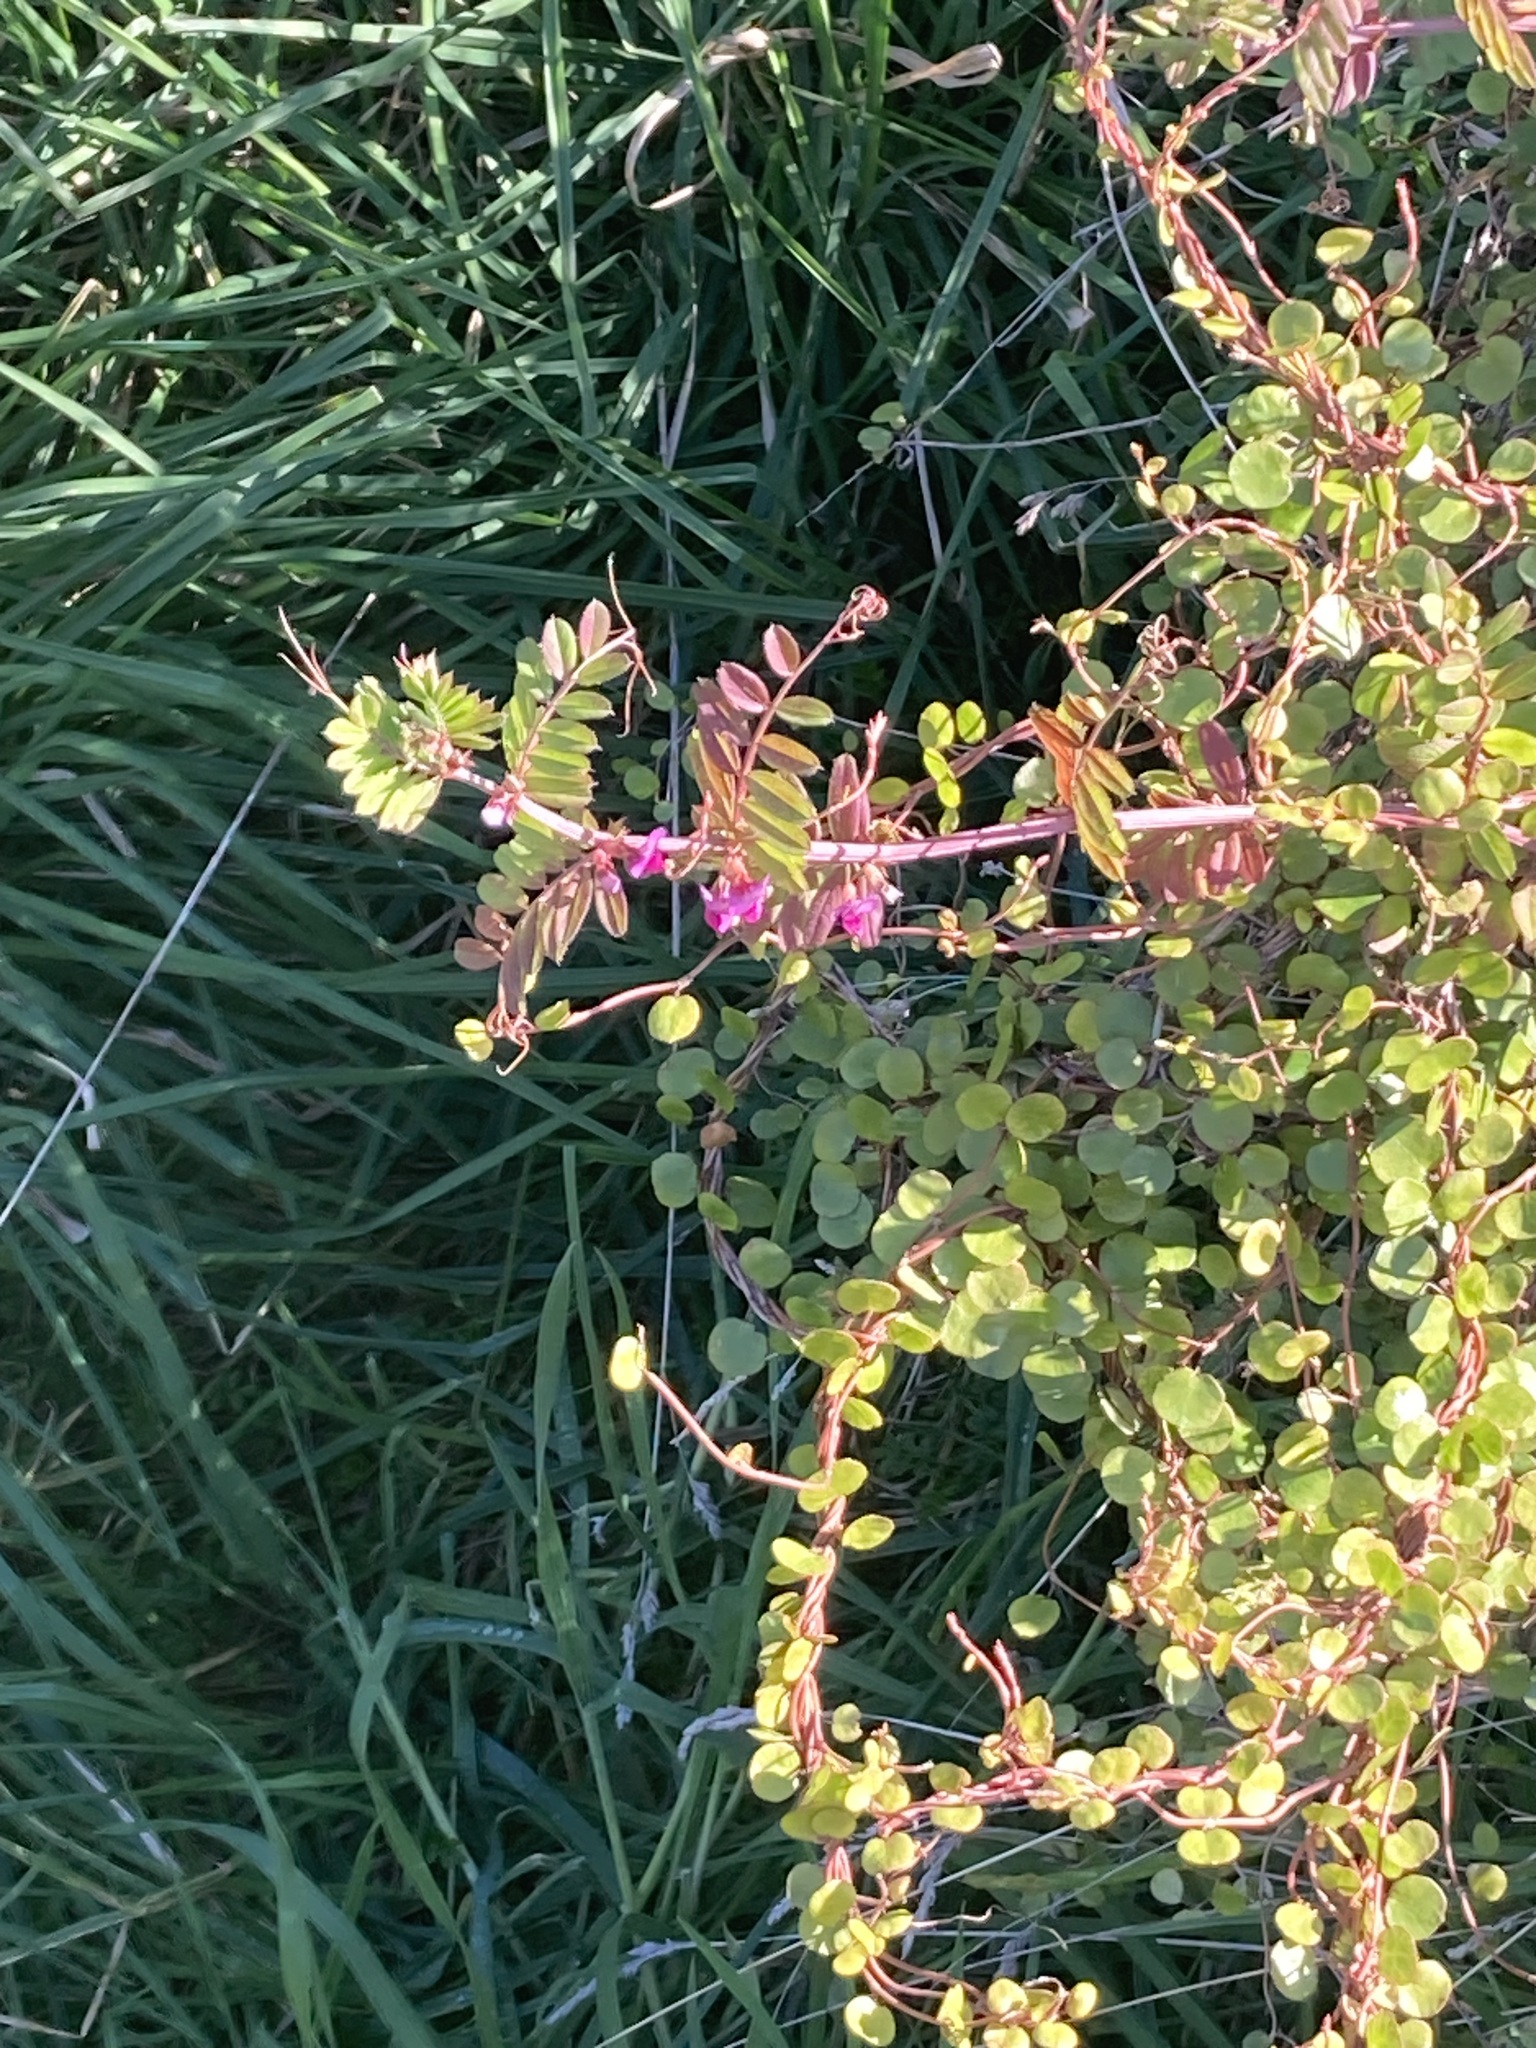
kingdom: Plantae
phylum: Tracheophyta
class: Magnoliopsida
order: Caryophyllales
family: Polygonaceae
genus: Muehlenbeckia
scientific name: Muehlenbeckia complexa
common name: Wireplant
